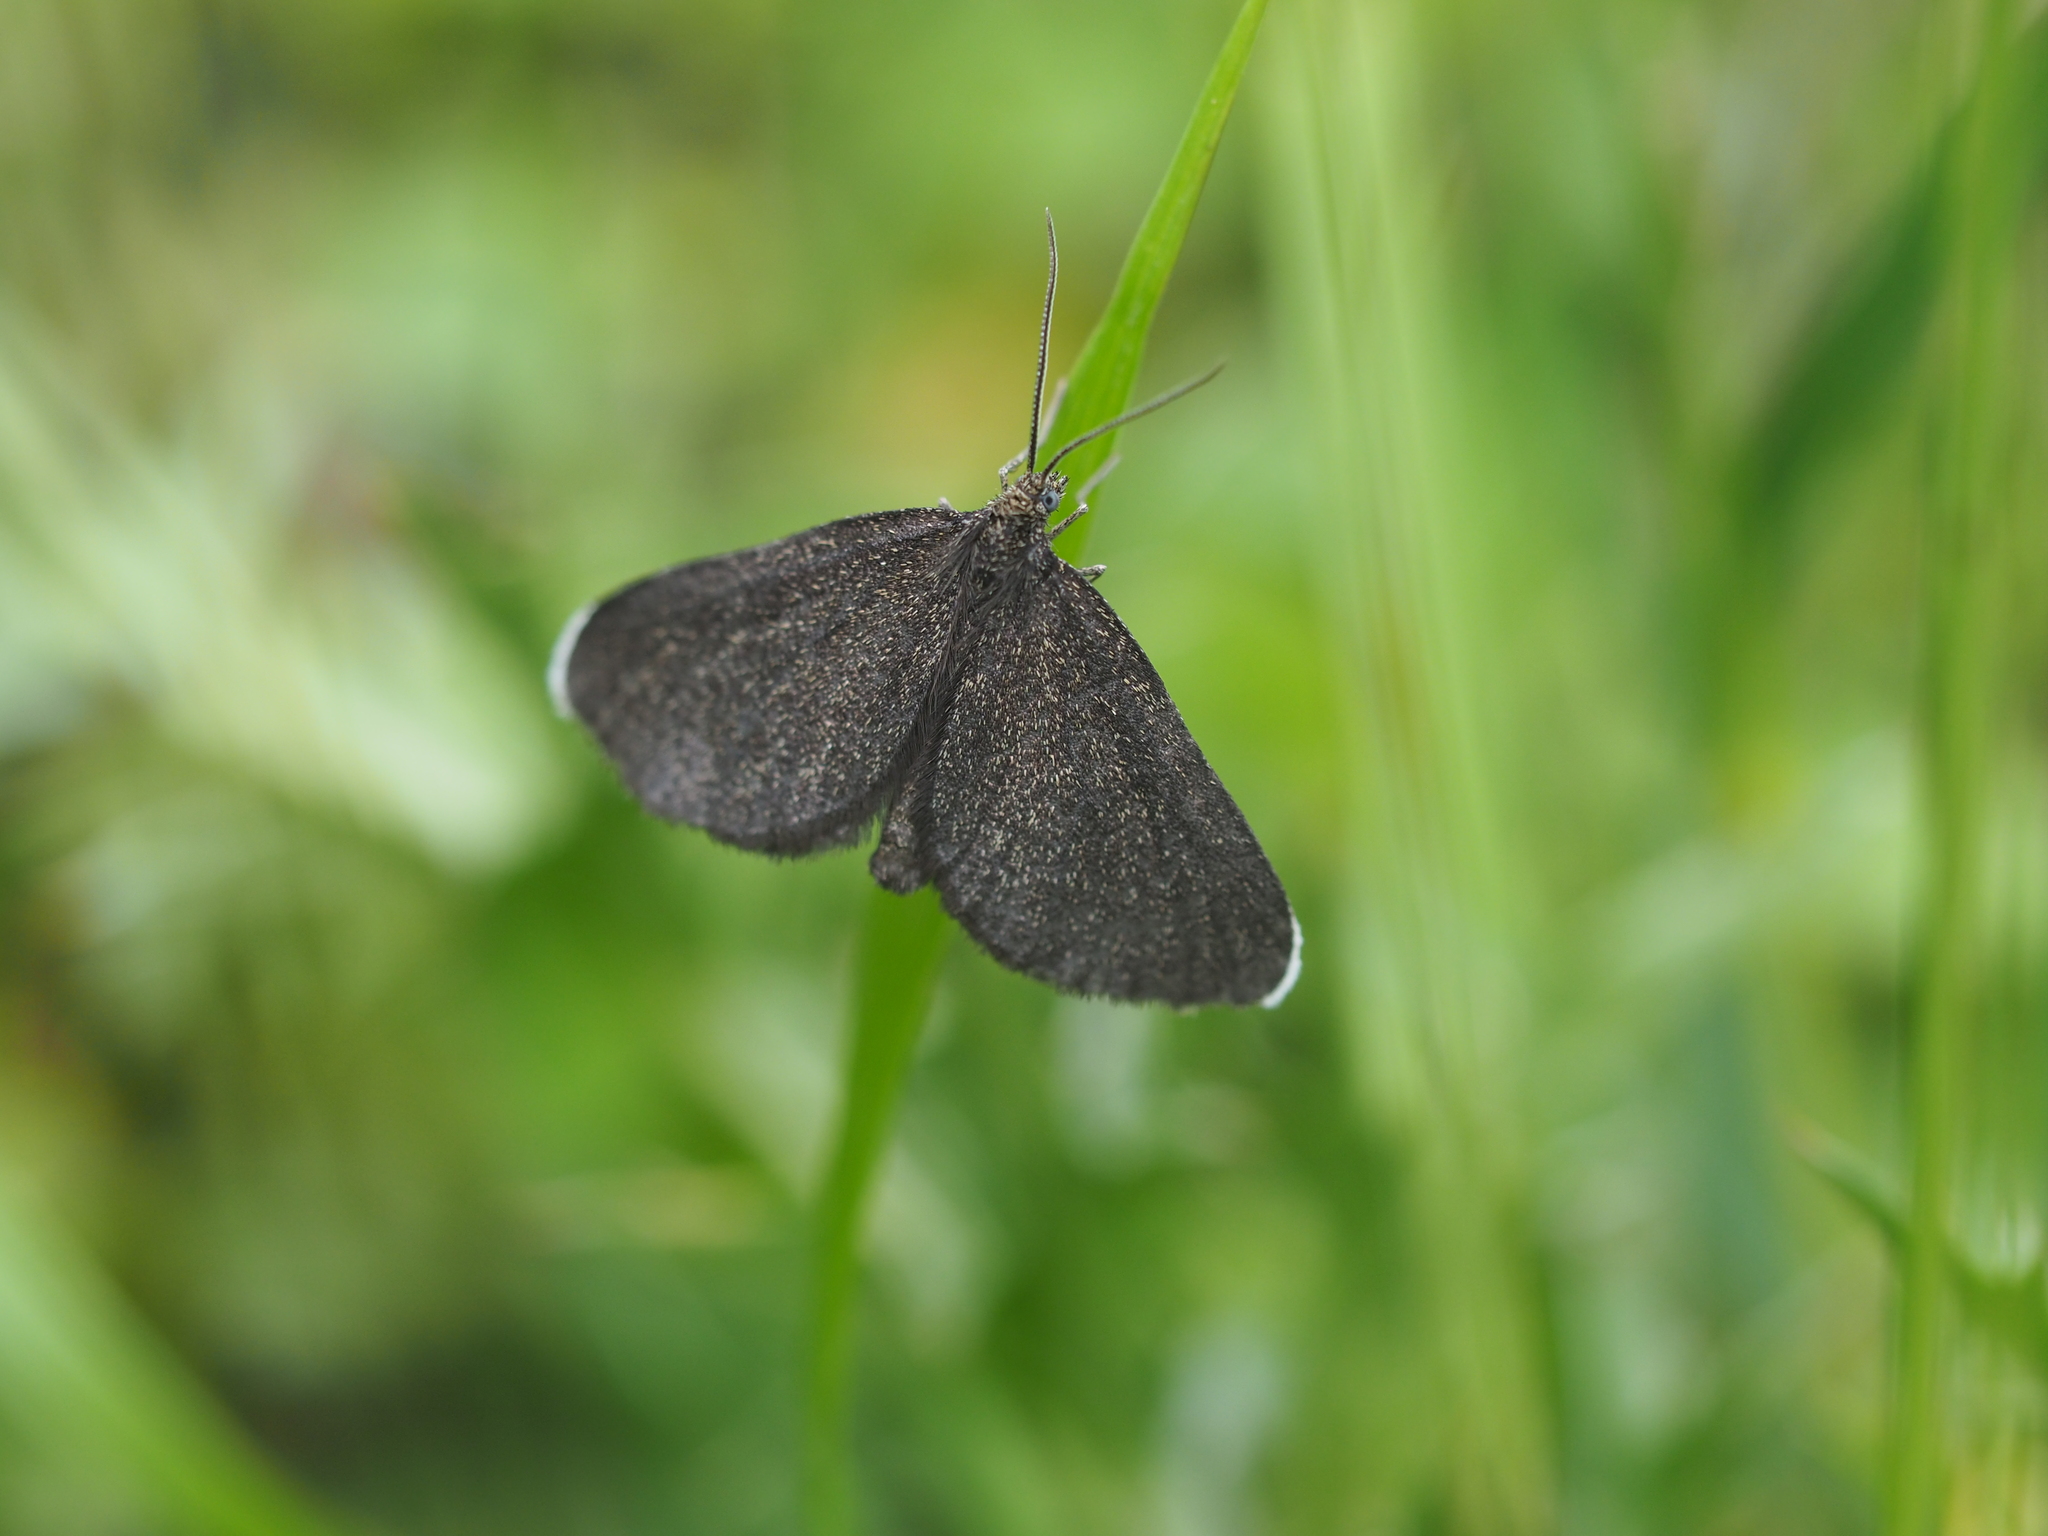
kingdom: Animalia
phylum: Arthropoda
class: Insecta
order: Lepidoptera
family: Geometridae
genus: Odezia
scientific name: Odezia atrata
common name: Chimney sweeper
